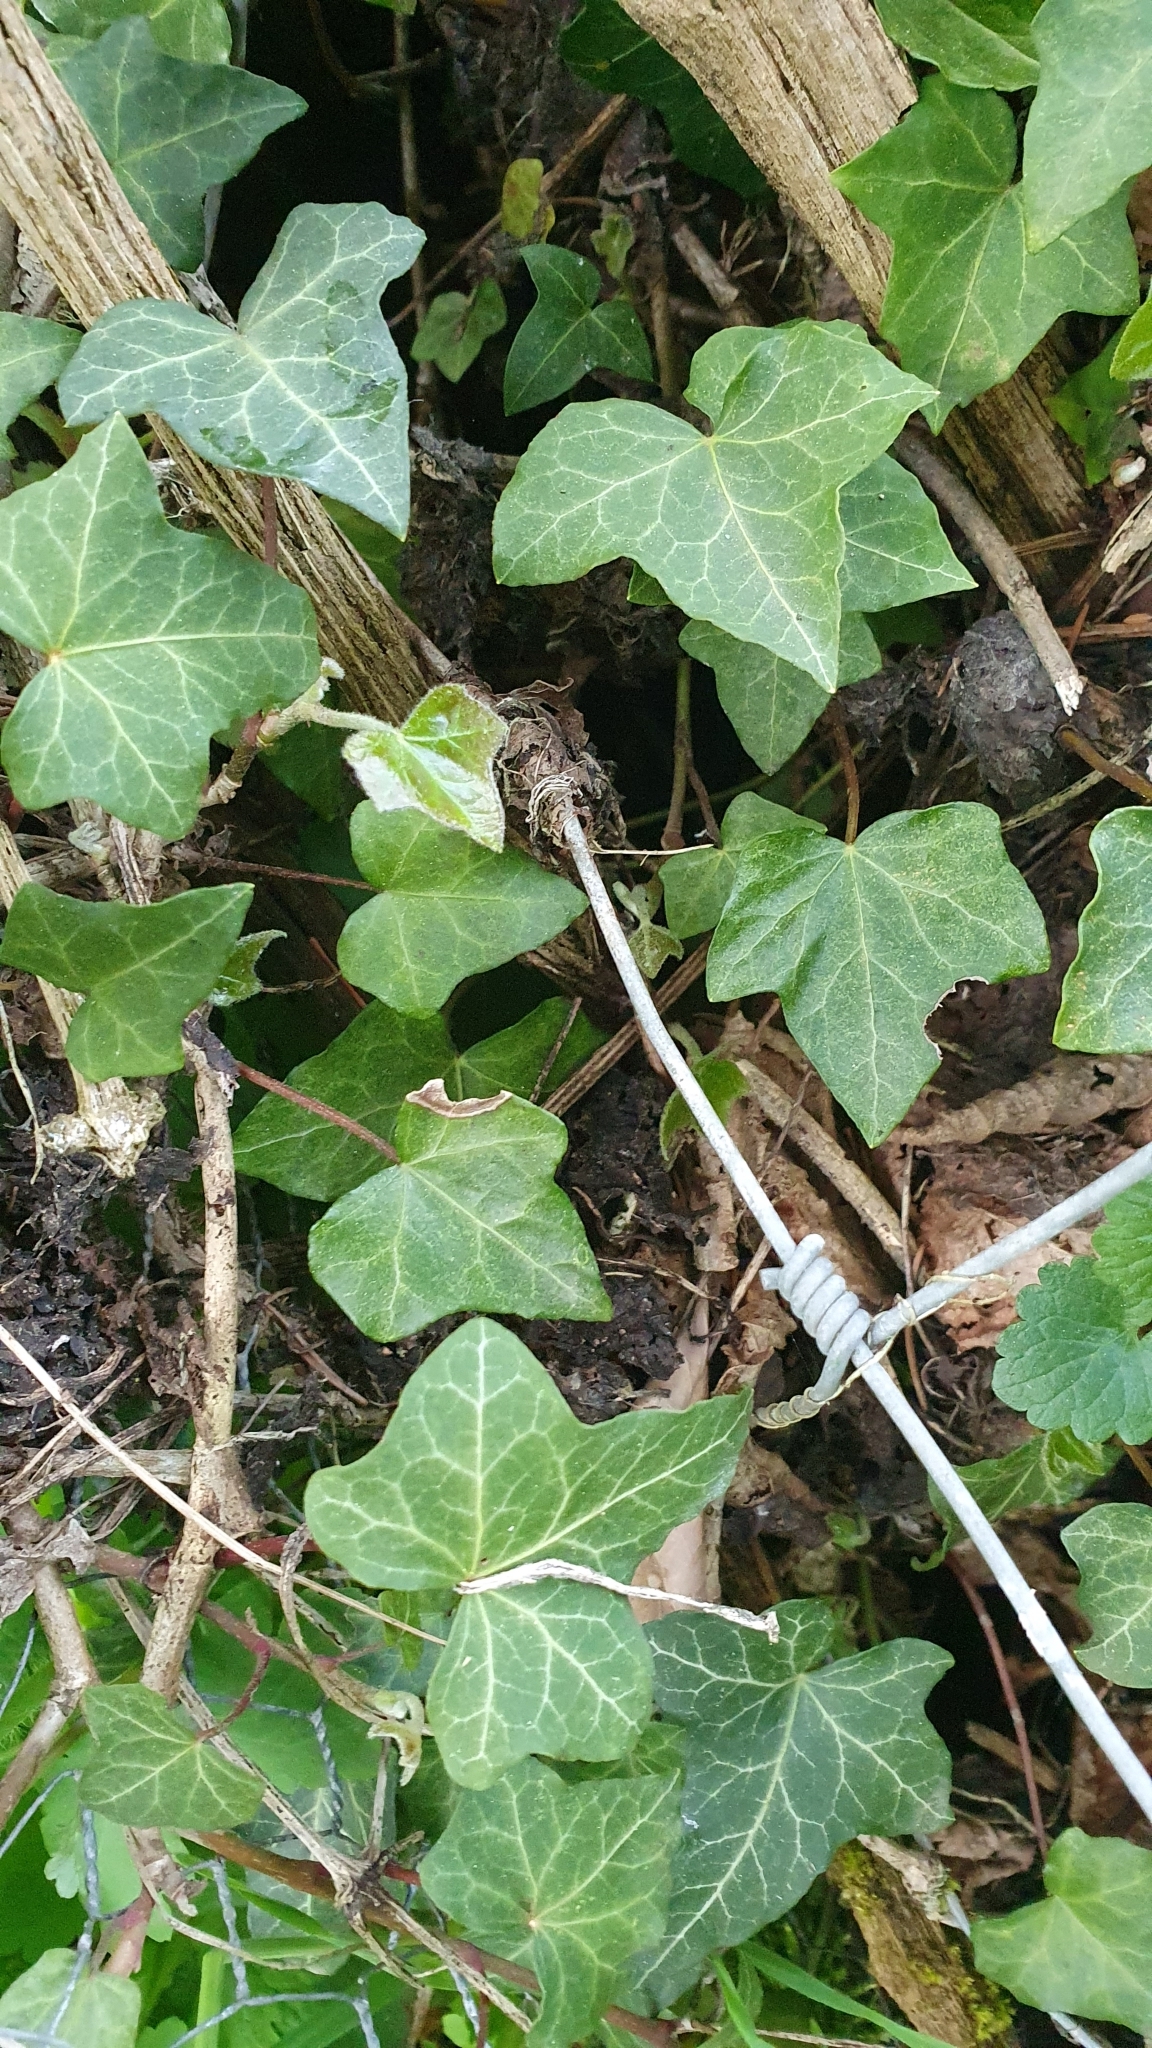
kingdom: Plantae
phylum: Tracheophyta
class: Magnoliopsida
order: Apiales
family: Araliaceae
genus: Hedera
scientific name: Hedera helix
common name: Ivy
